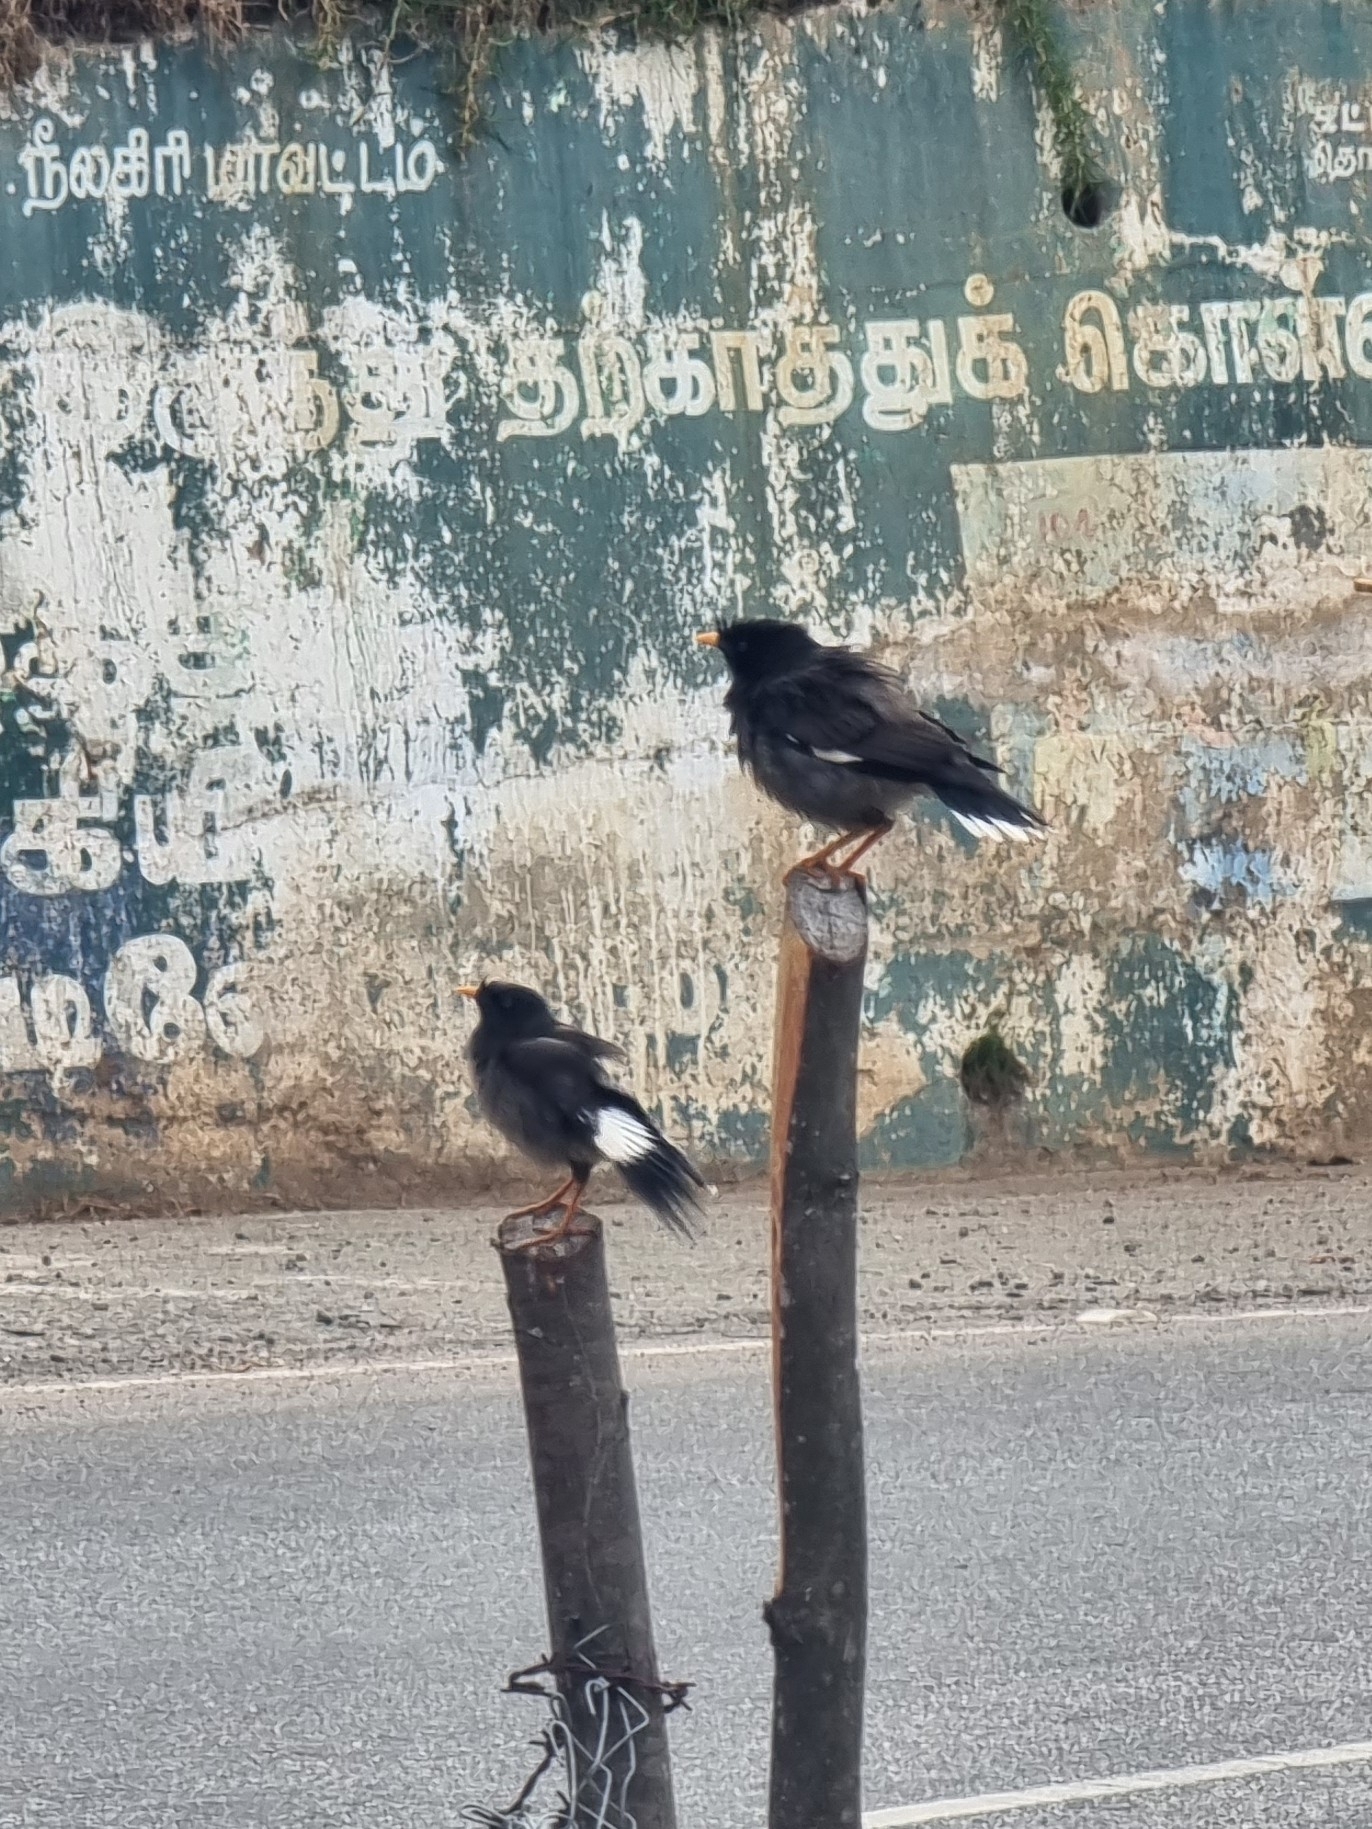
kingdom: Animalia
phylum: Chordata
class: Aves
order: Passeriformes
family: Sturnidae
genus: Acridotheres
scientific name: Acridotheres fuscus
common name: Jungle myna
